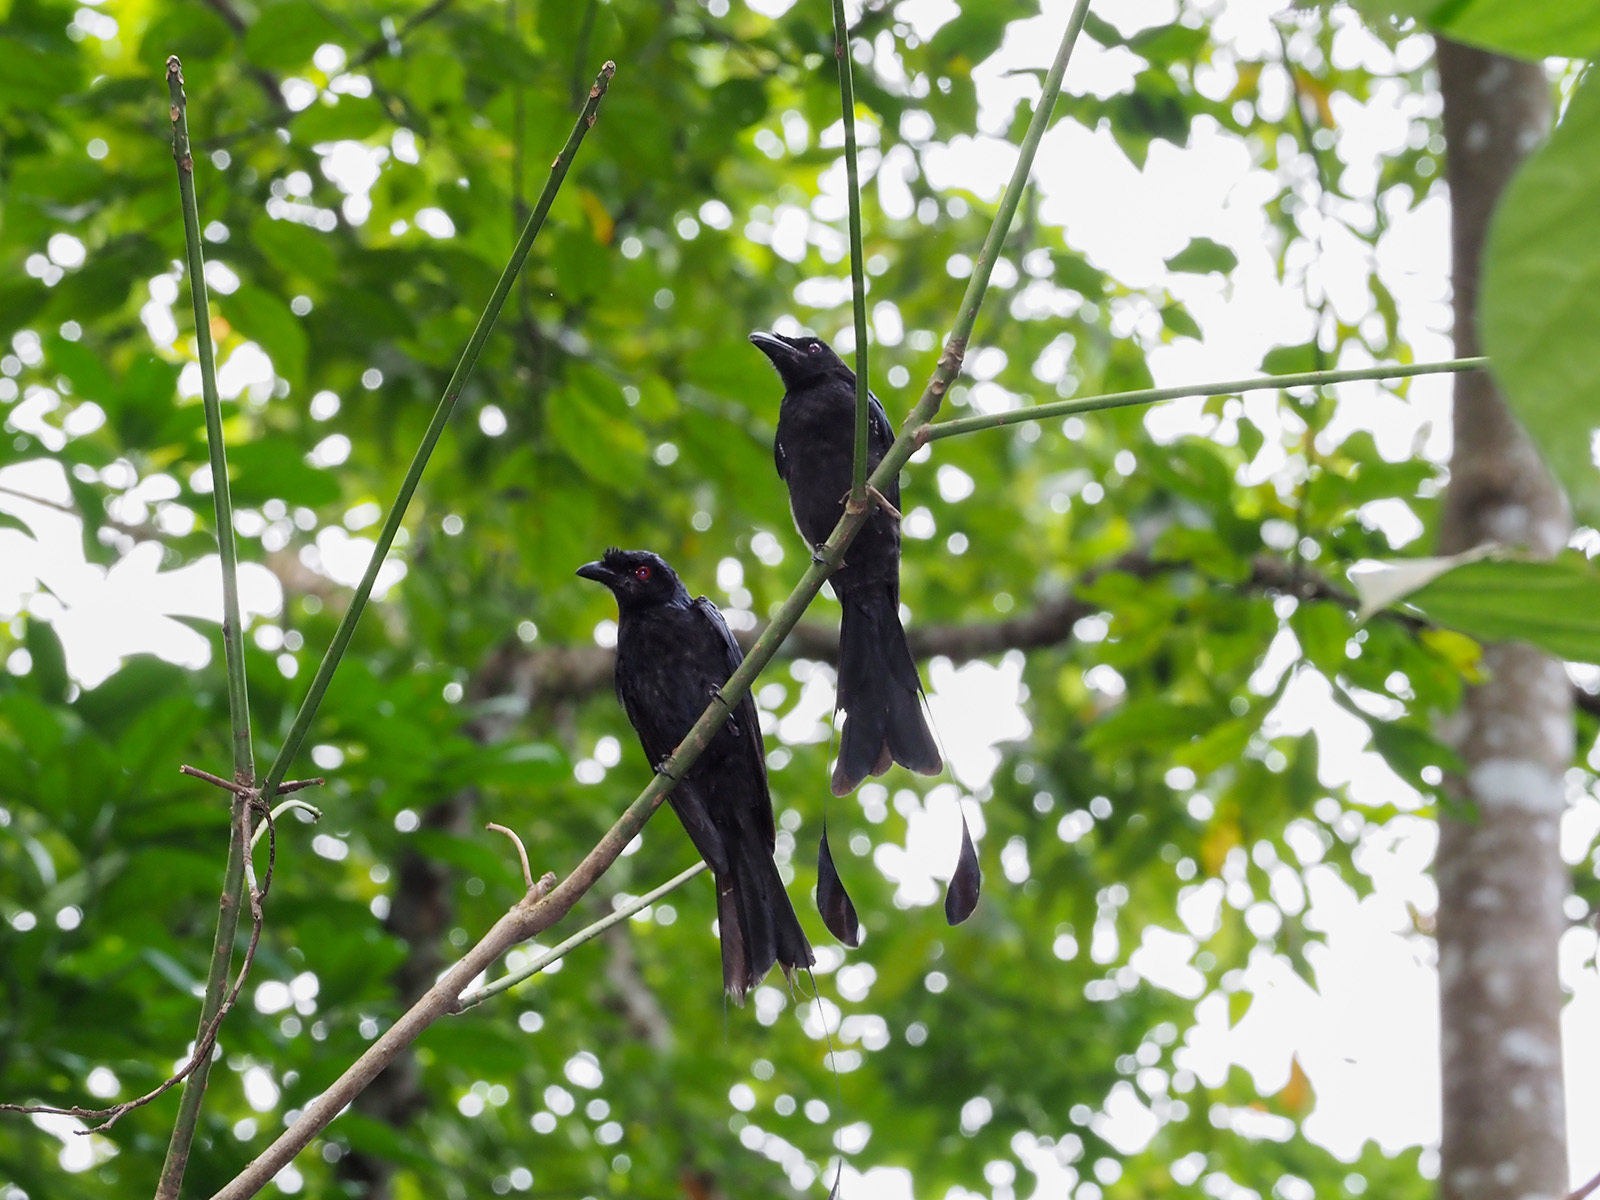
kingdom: Animalia
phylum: Chordata
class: Aves
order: Passeriformes
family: Dicruridae
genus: Dicrurus
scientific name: Dicrurus paradiseus
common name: Greater racket-tailed drongo
